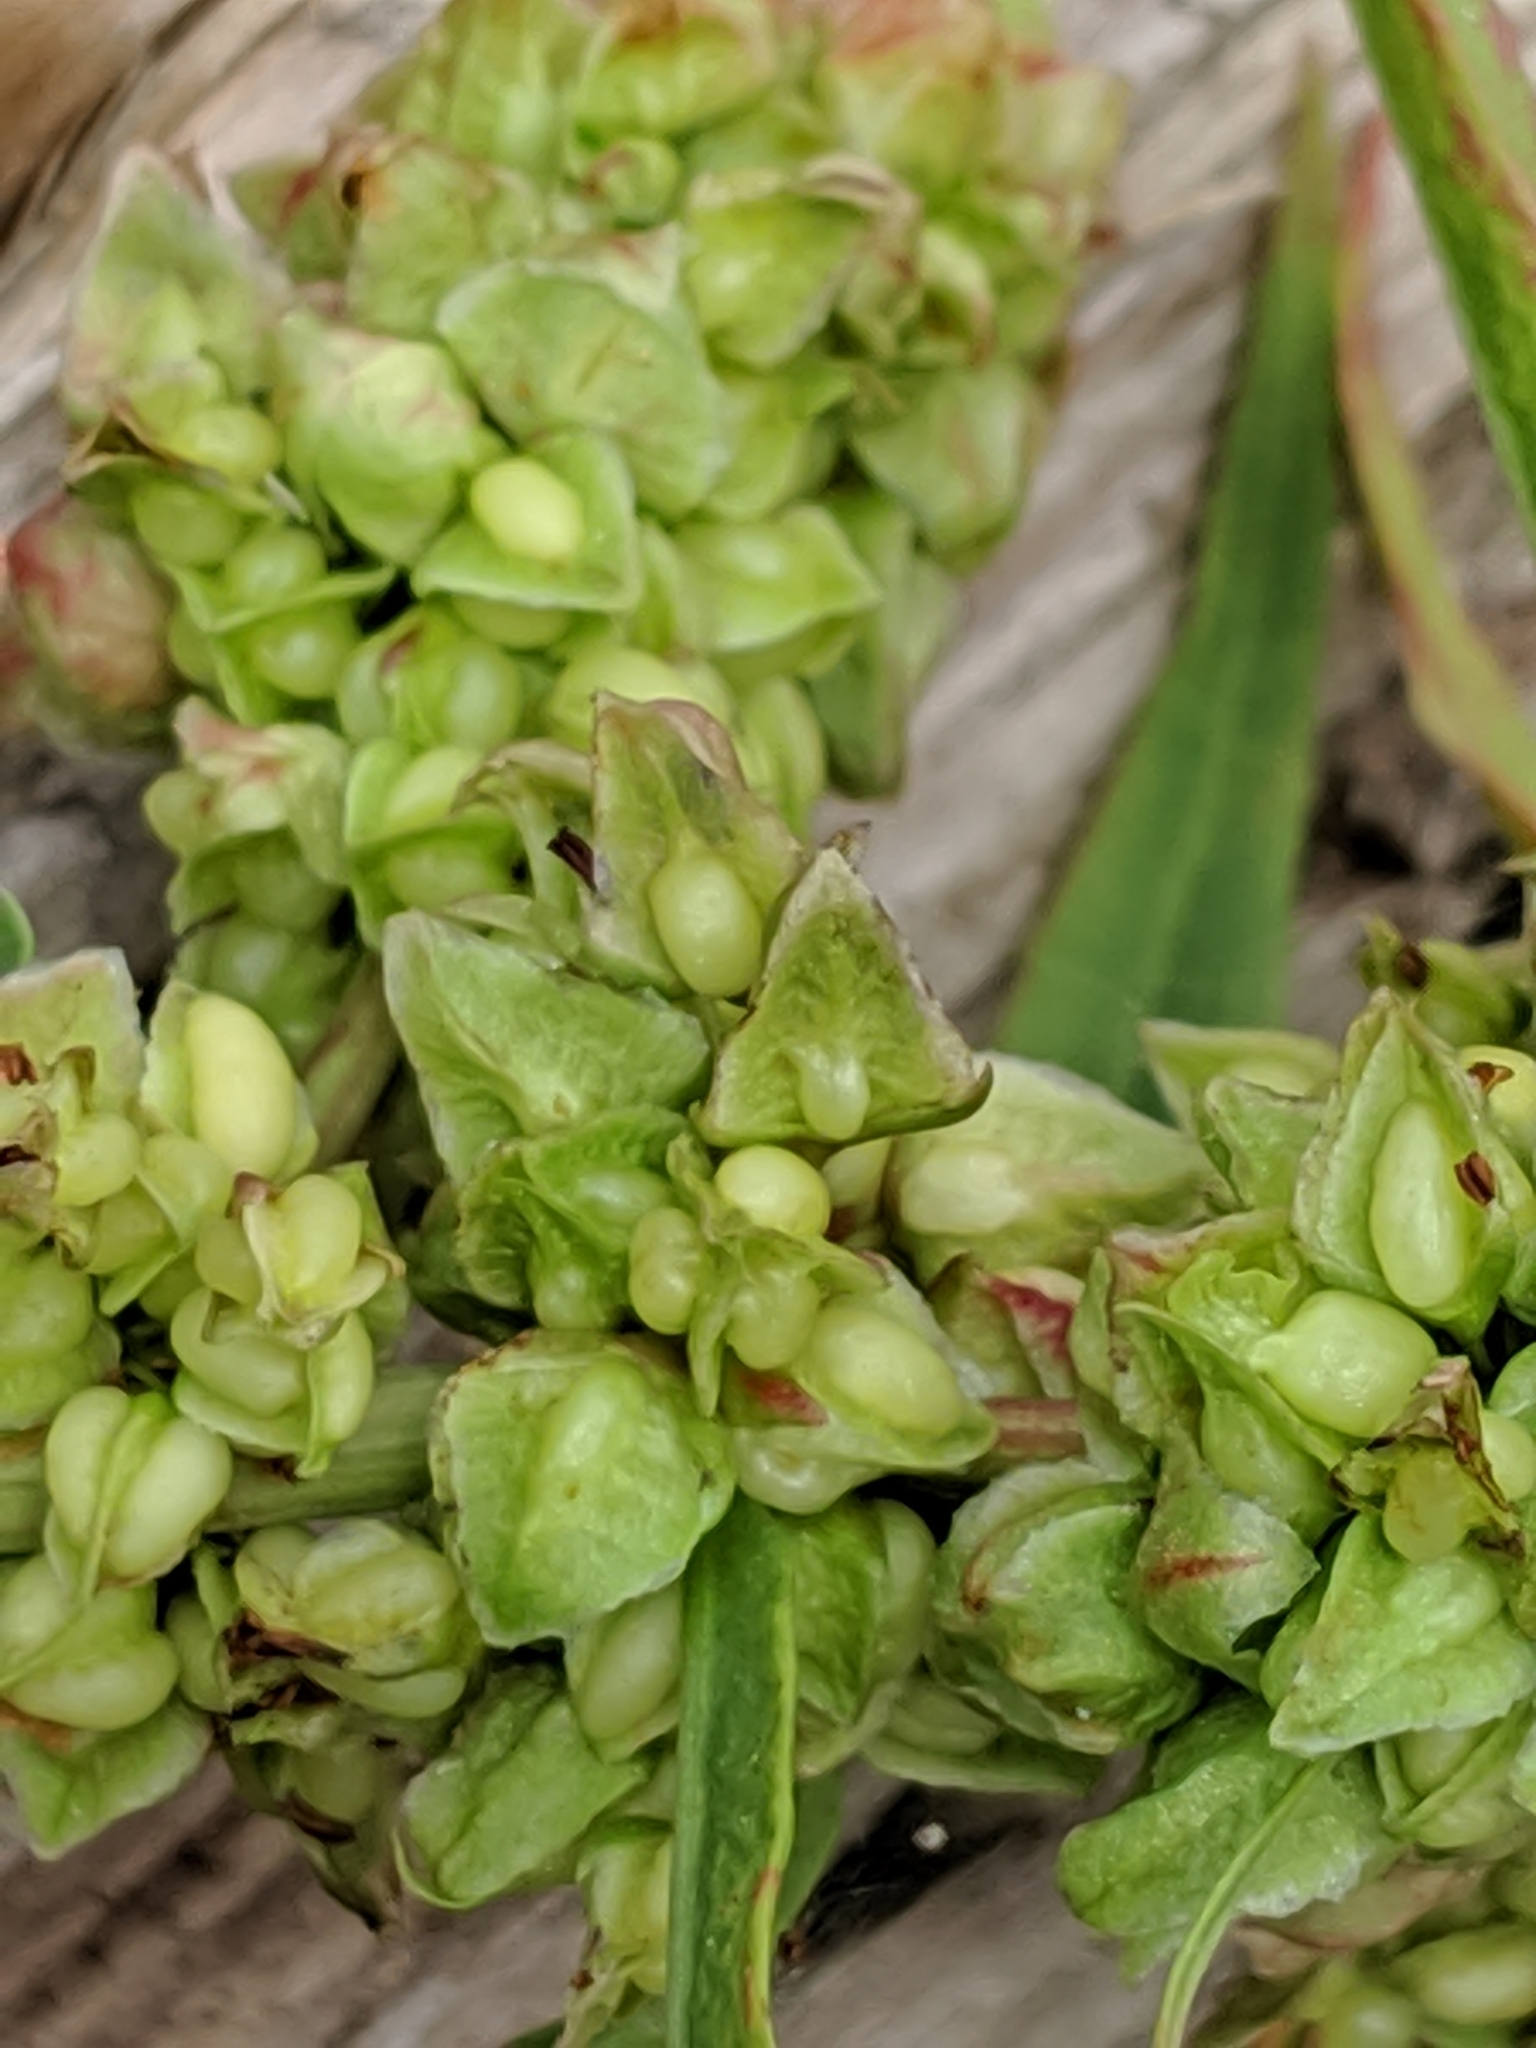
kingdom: Plantae
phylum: Tracheophyta
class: Magnoliopsida
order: Caryophyllales
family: Polygonaceae
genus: Rumex
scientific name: Rumex triangulivalvis
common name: Triangular-valve dock
